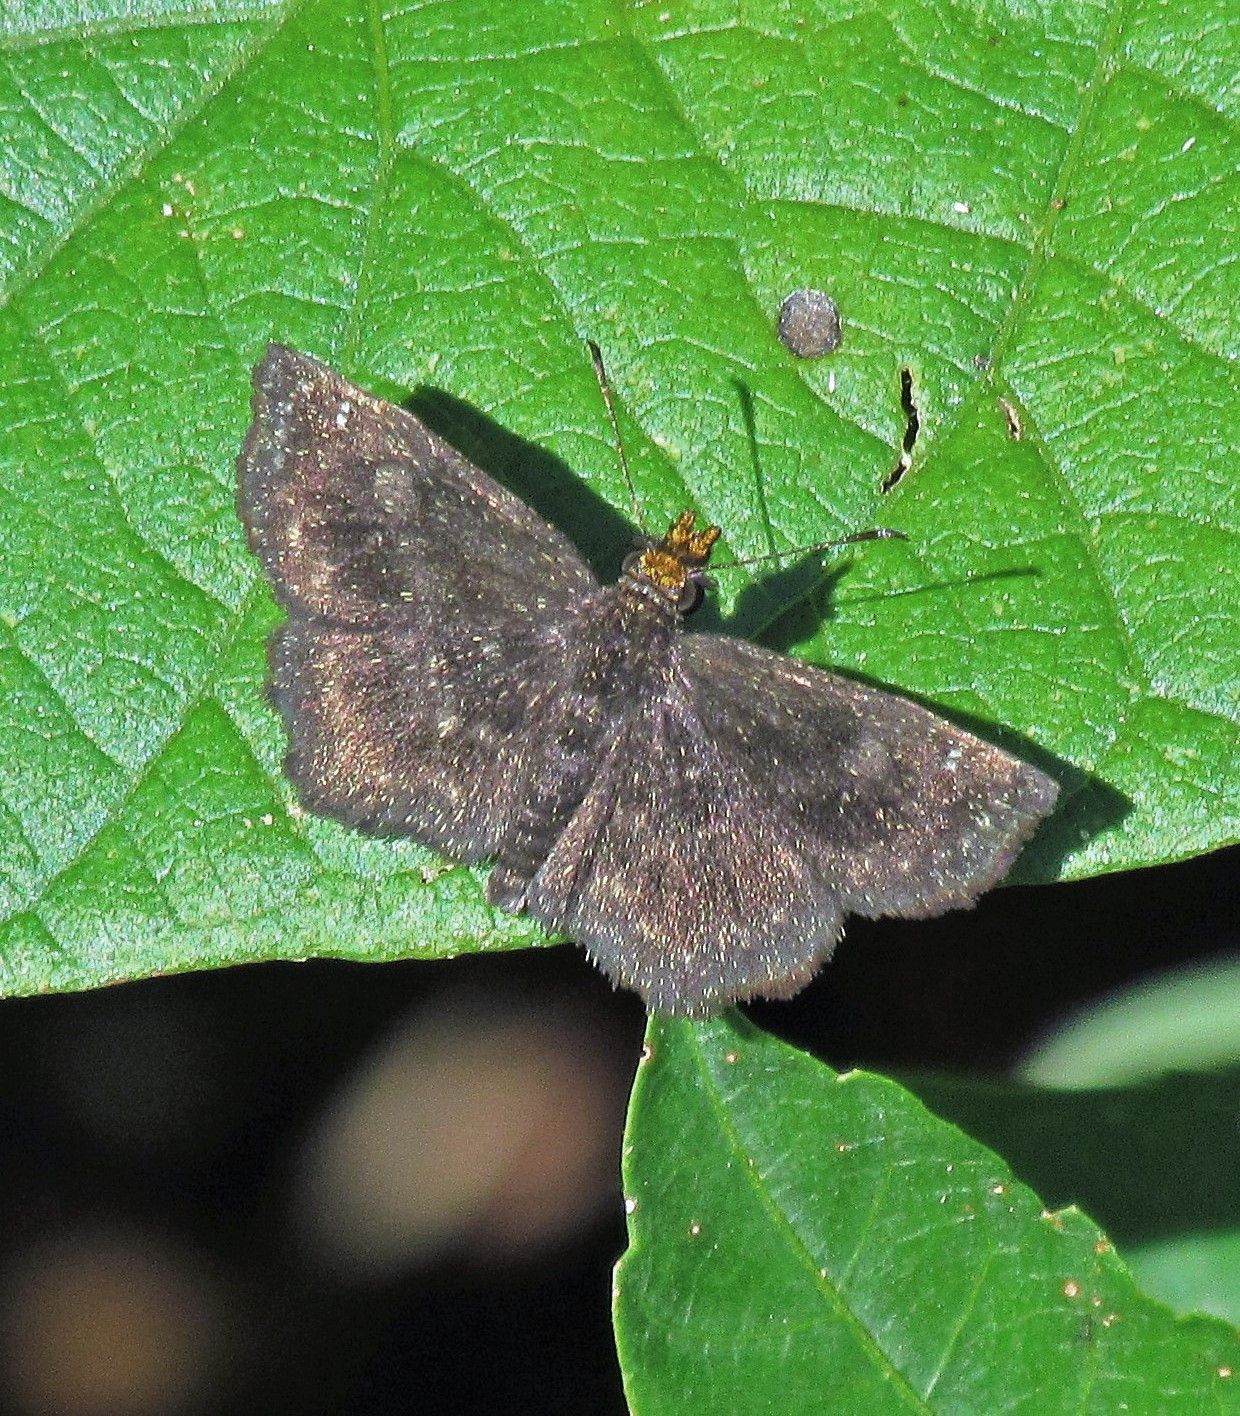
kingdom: Animalia
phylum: Arthropoda
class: Insecta
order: Lepidoptera
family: Hesperiidae
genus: Staphylus
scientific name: Staphylus musculus
